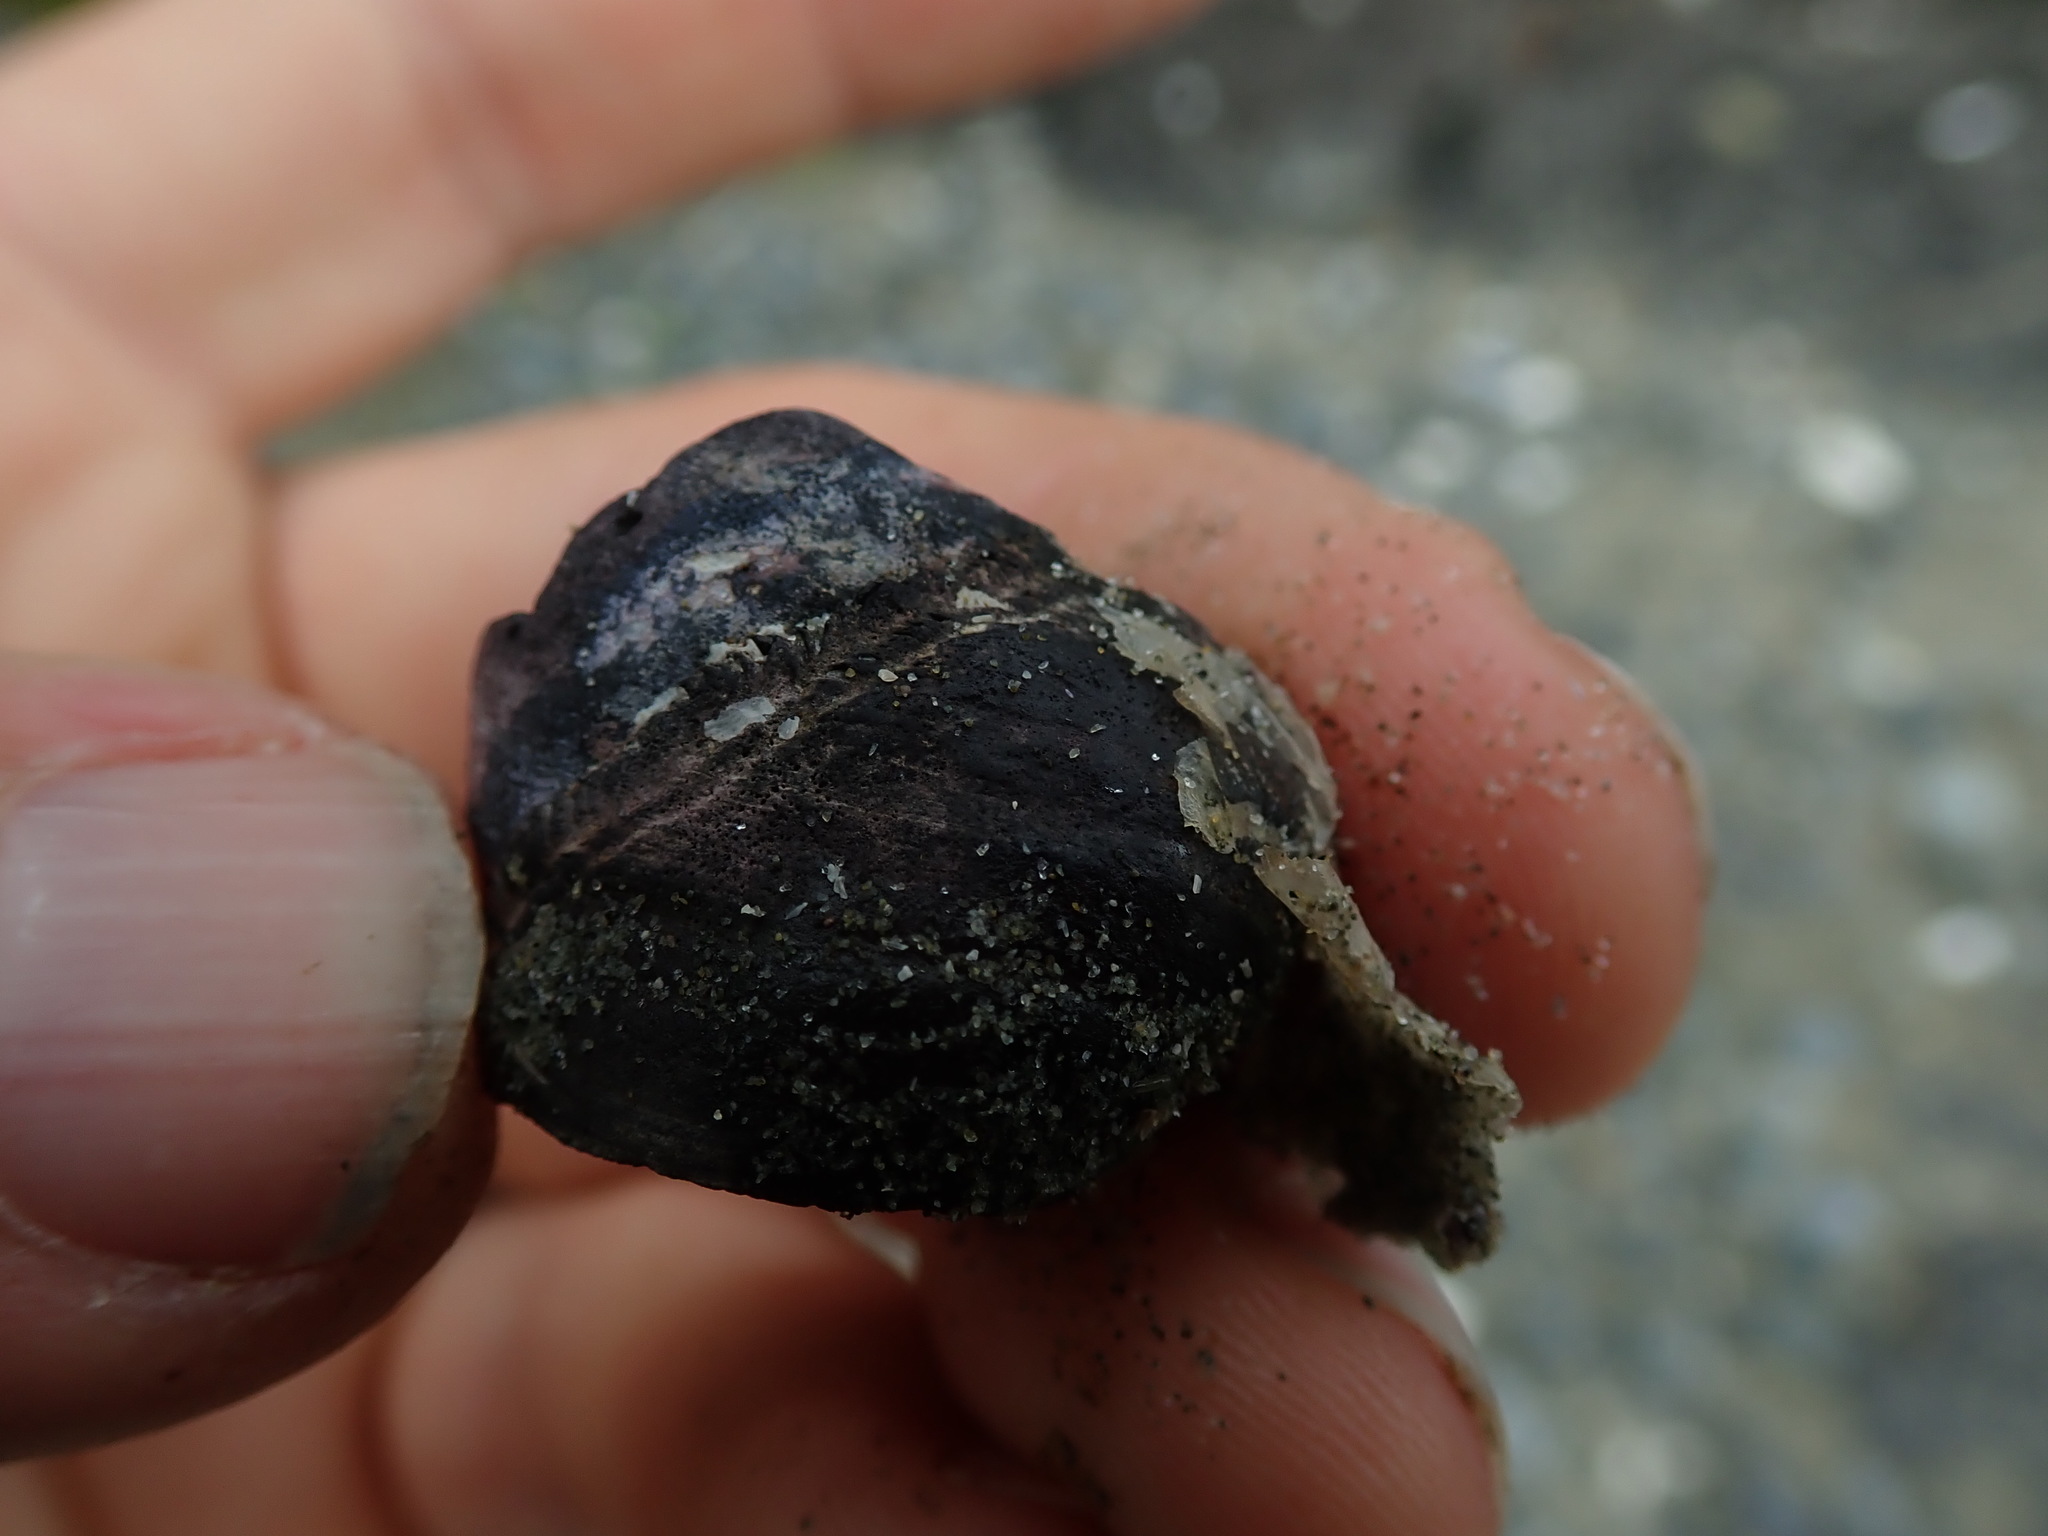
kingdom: Animalia
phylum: Mollusca
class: Gastropoda
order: Trochida
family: Tegulidae
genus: Tegula
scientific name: Tegula funebralis
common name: Black tegula
